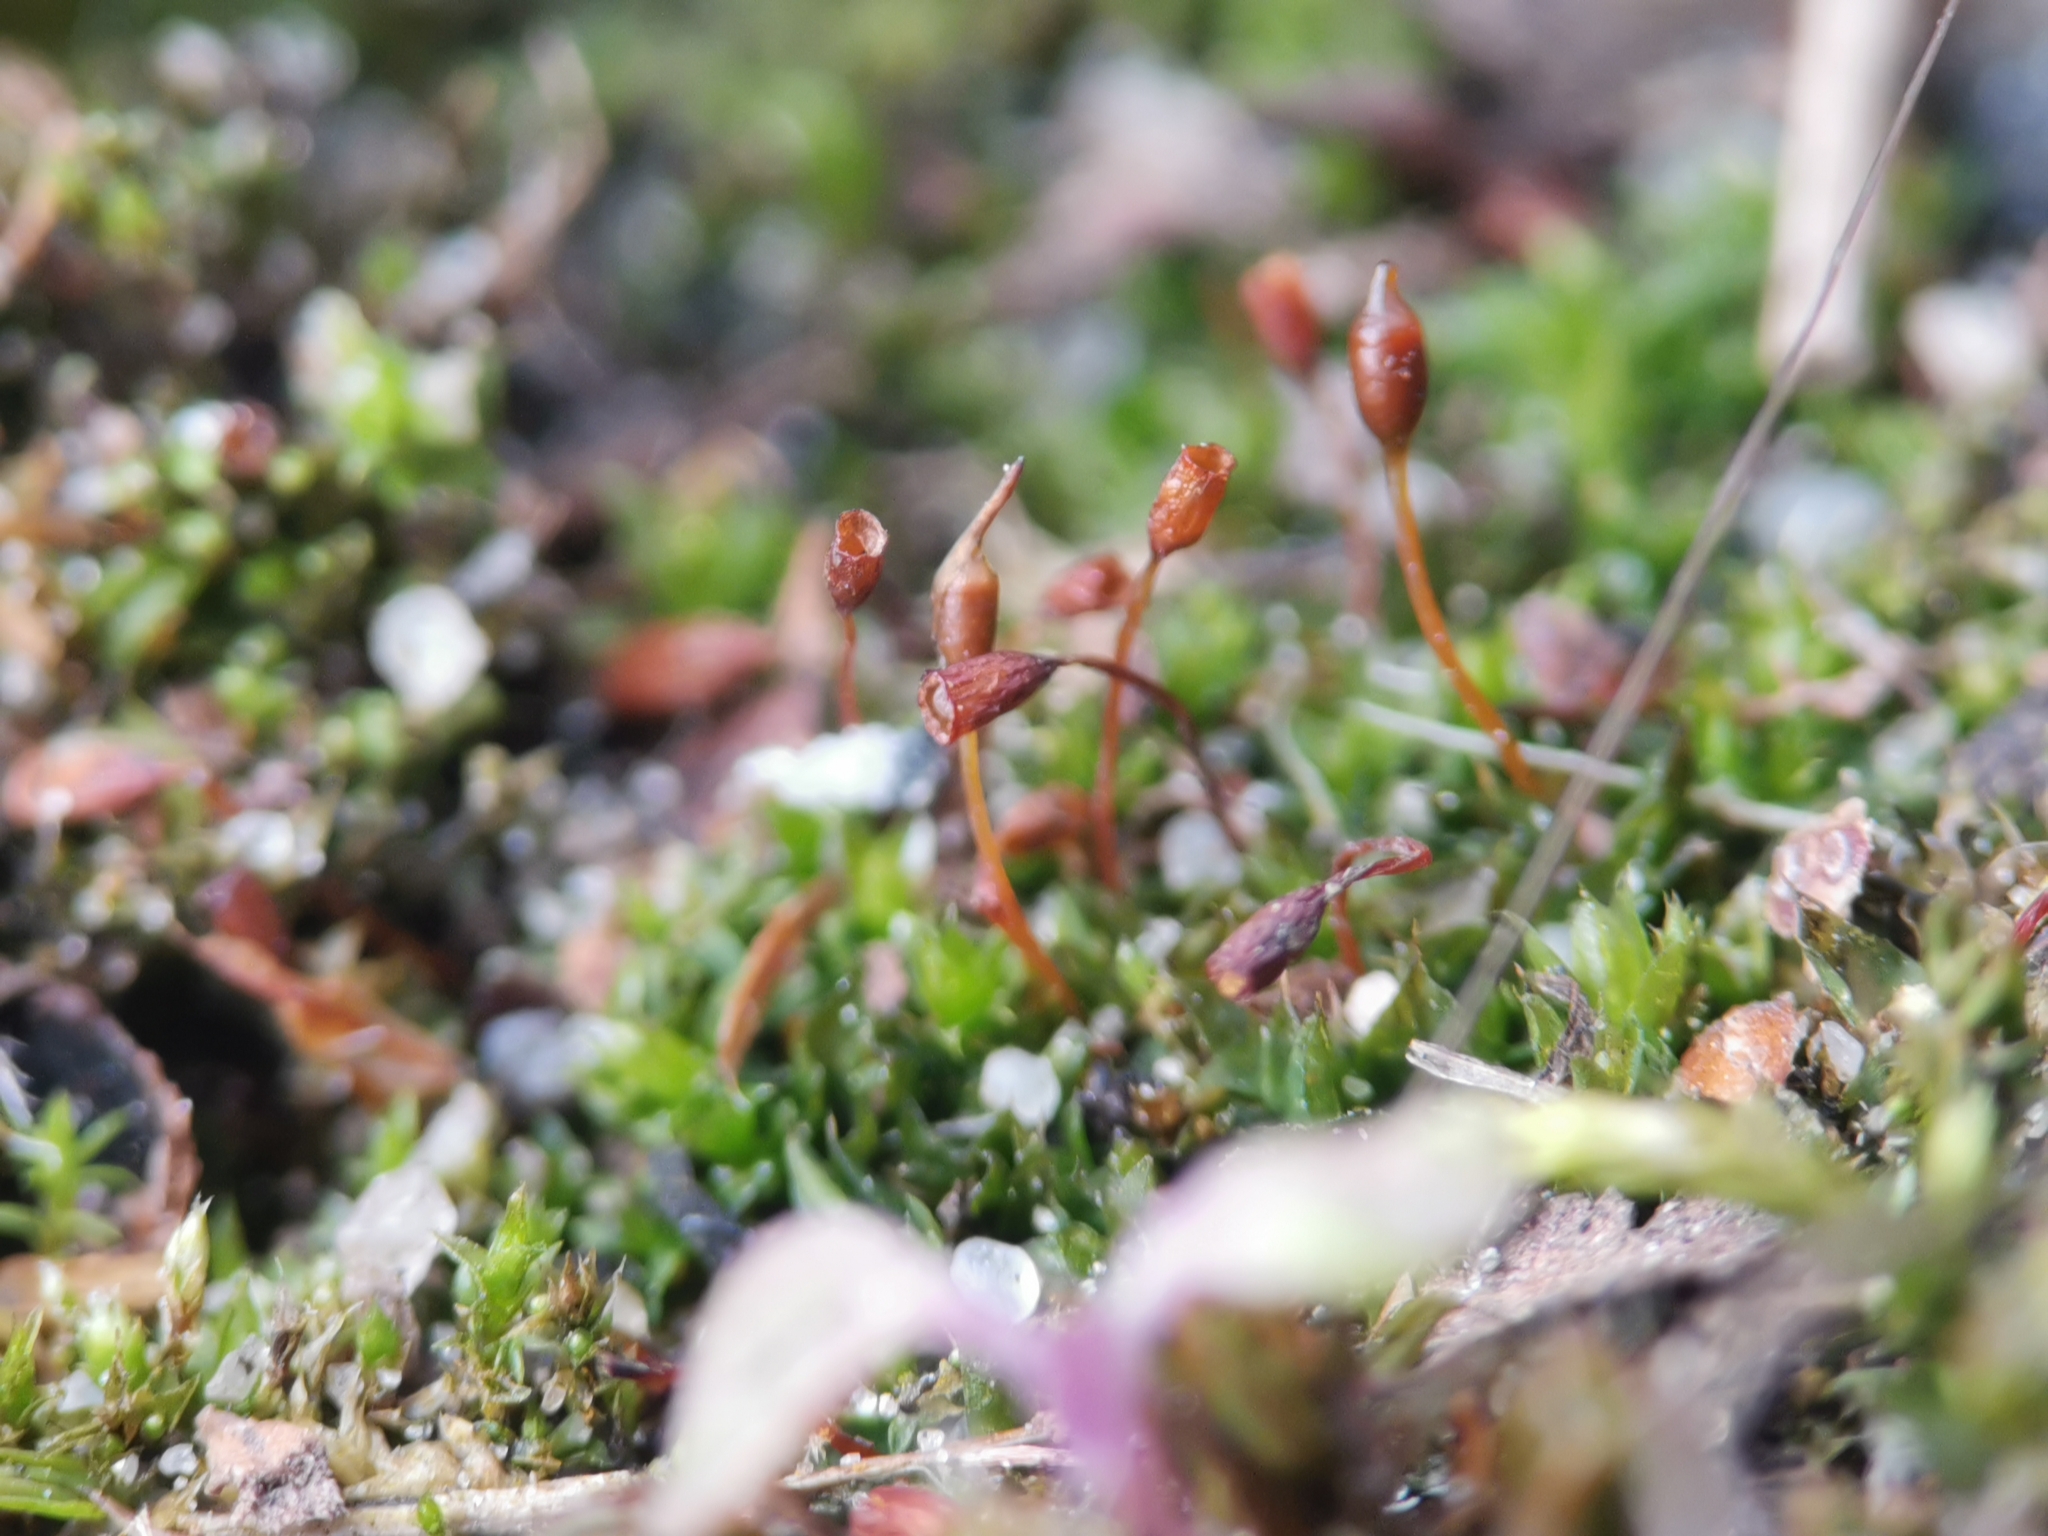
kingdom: Plantae
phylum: Bryophyta
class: Bryopsida
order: Pottiales
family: Pottiaceae
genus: Tortula
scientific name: Tortula truncata
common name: Truncated screw moss
